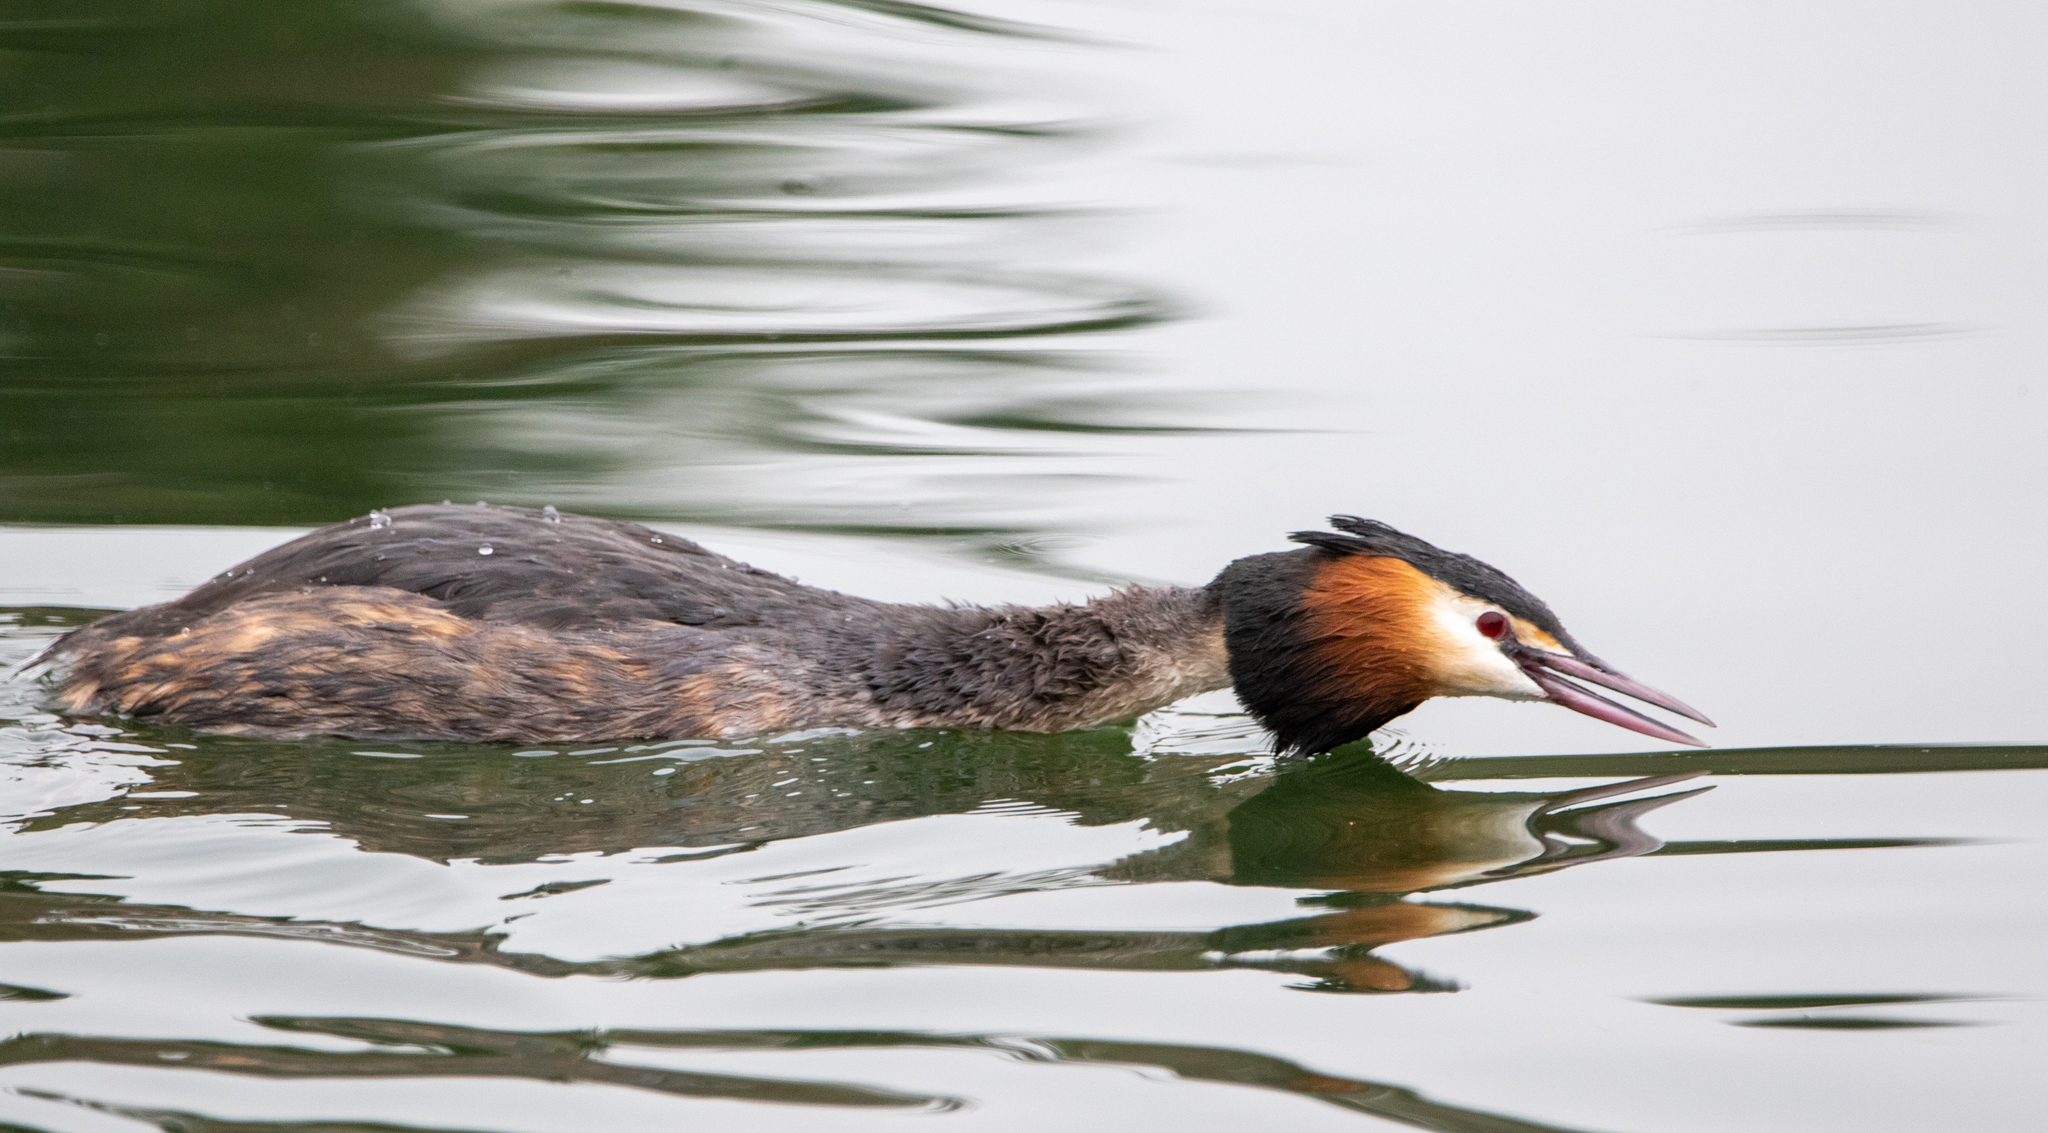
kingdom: Animalia
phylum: Chordata
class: Aves
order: Podicipediformes
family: Podicipedidae
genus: Podiceps
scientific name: Podiceps cristatus
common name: Great crested grebe
